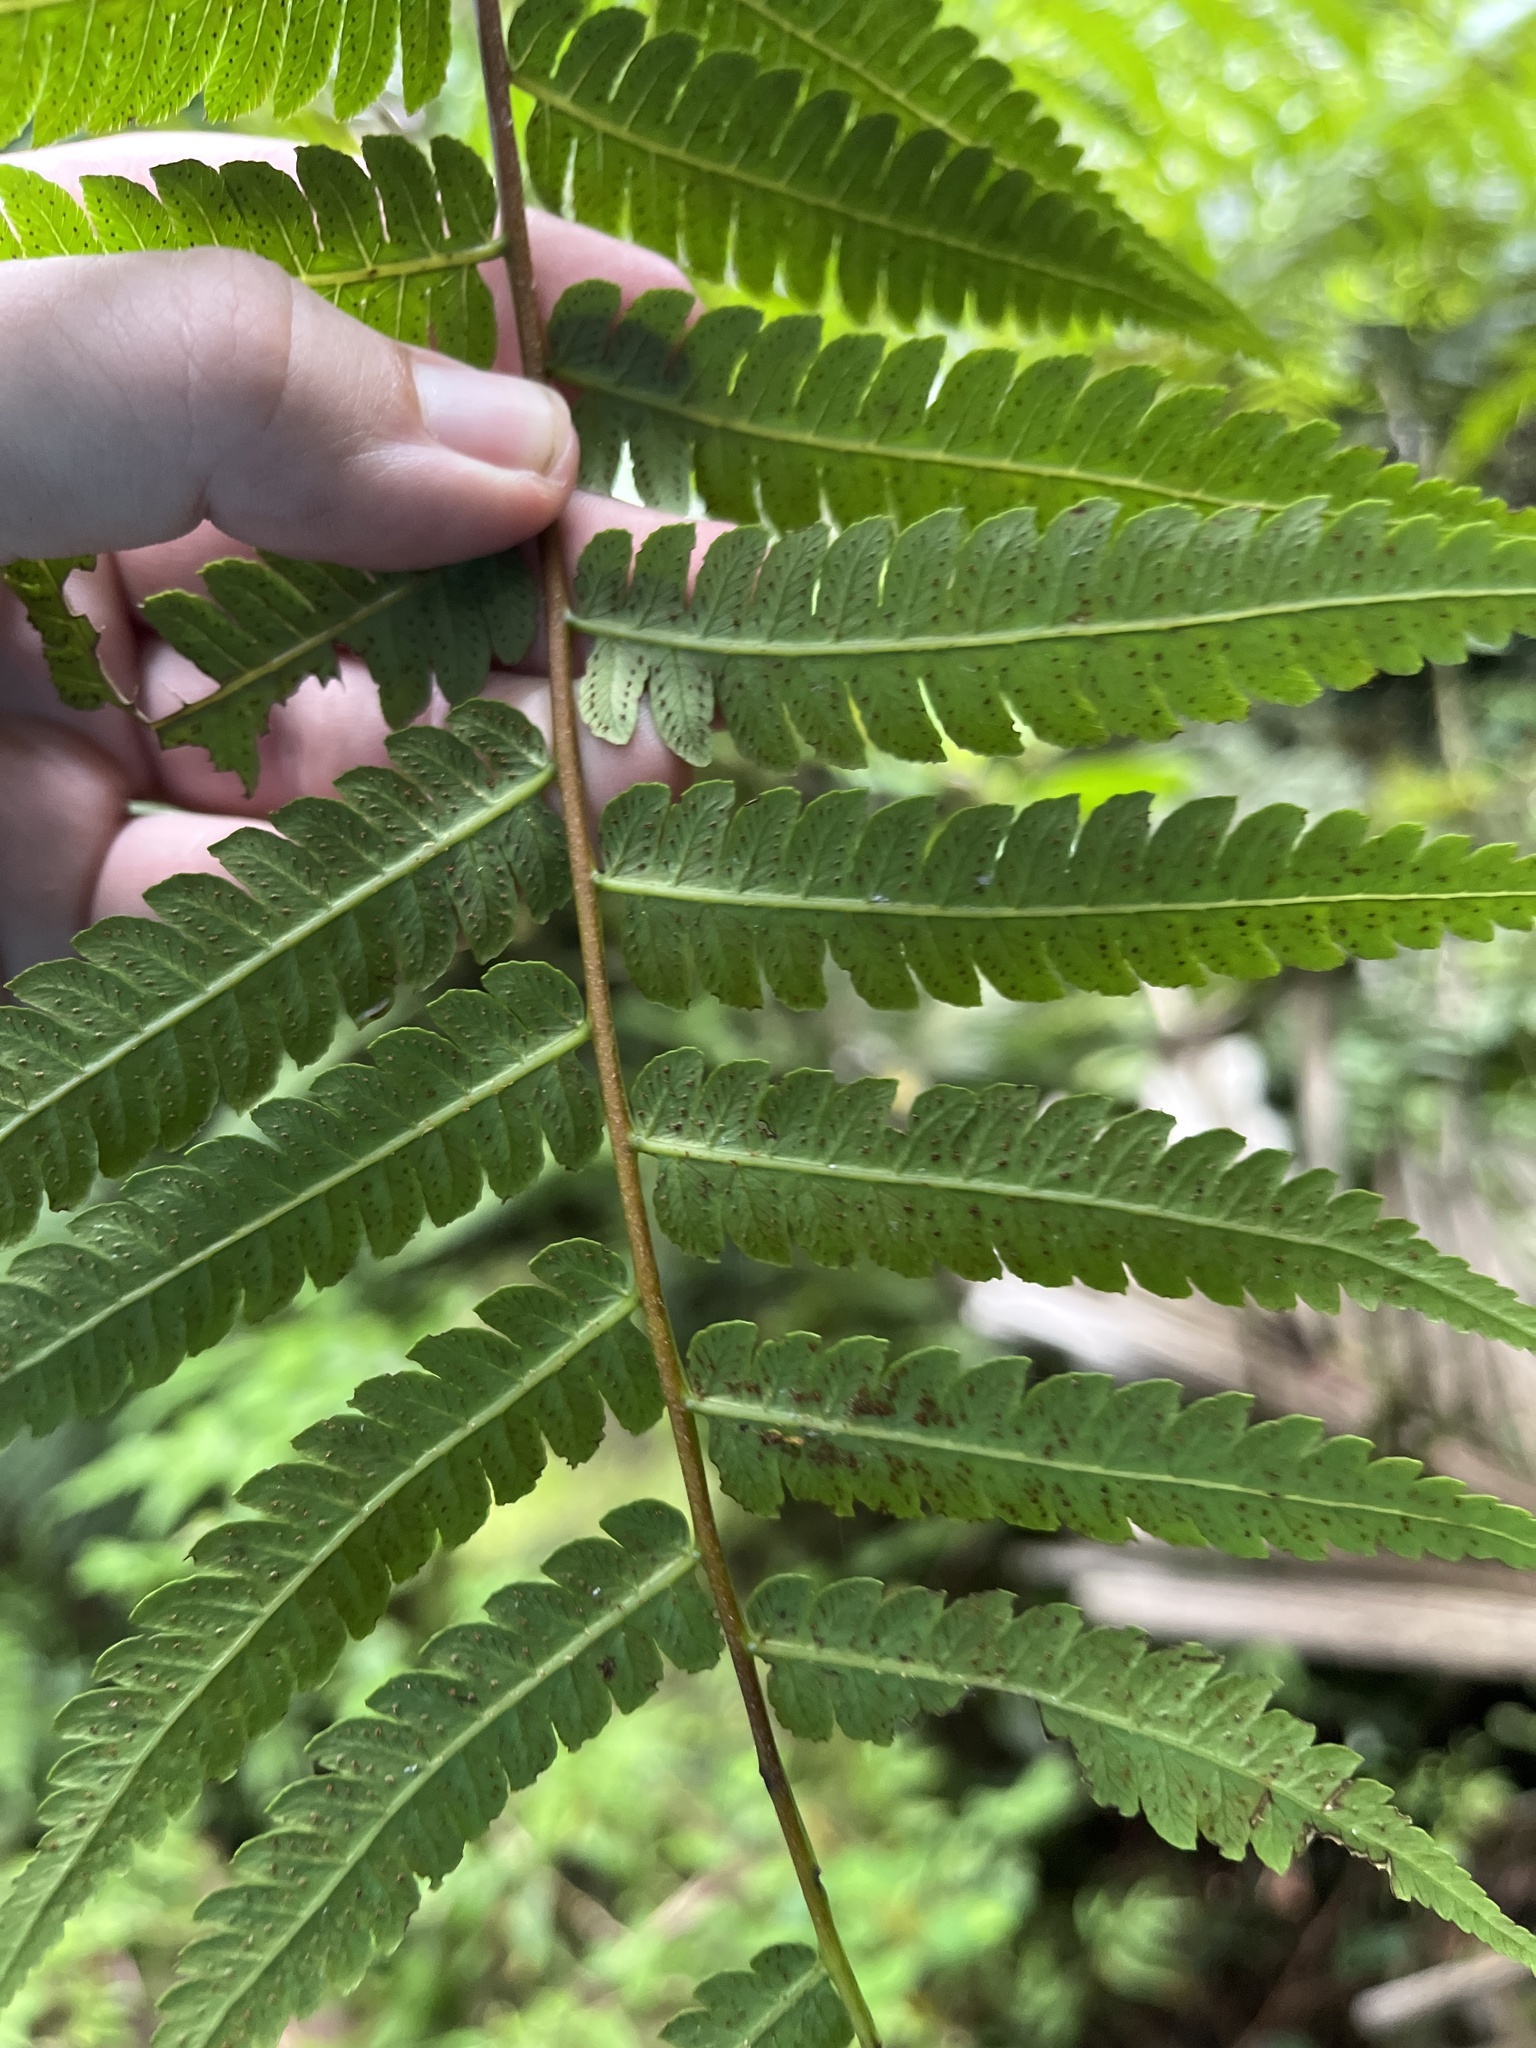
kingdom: Plantae
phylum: Tracheophyta
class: Polypodiopsida
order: Cyatheales
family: Cyatheaceae
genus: Cyathea
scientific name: Cyathea borinquena
